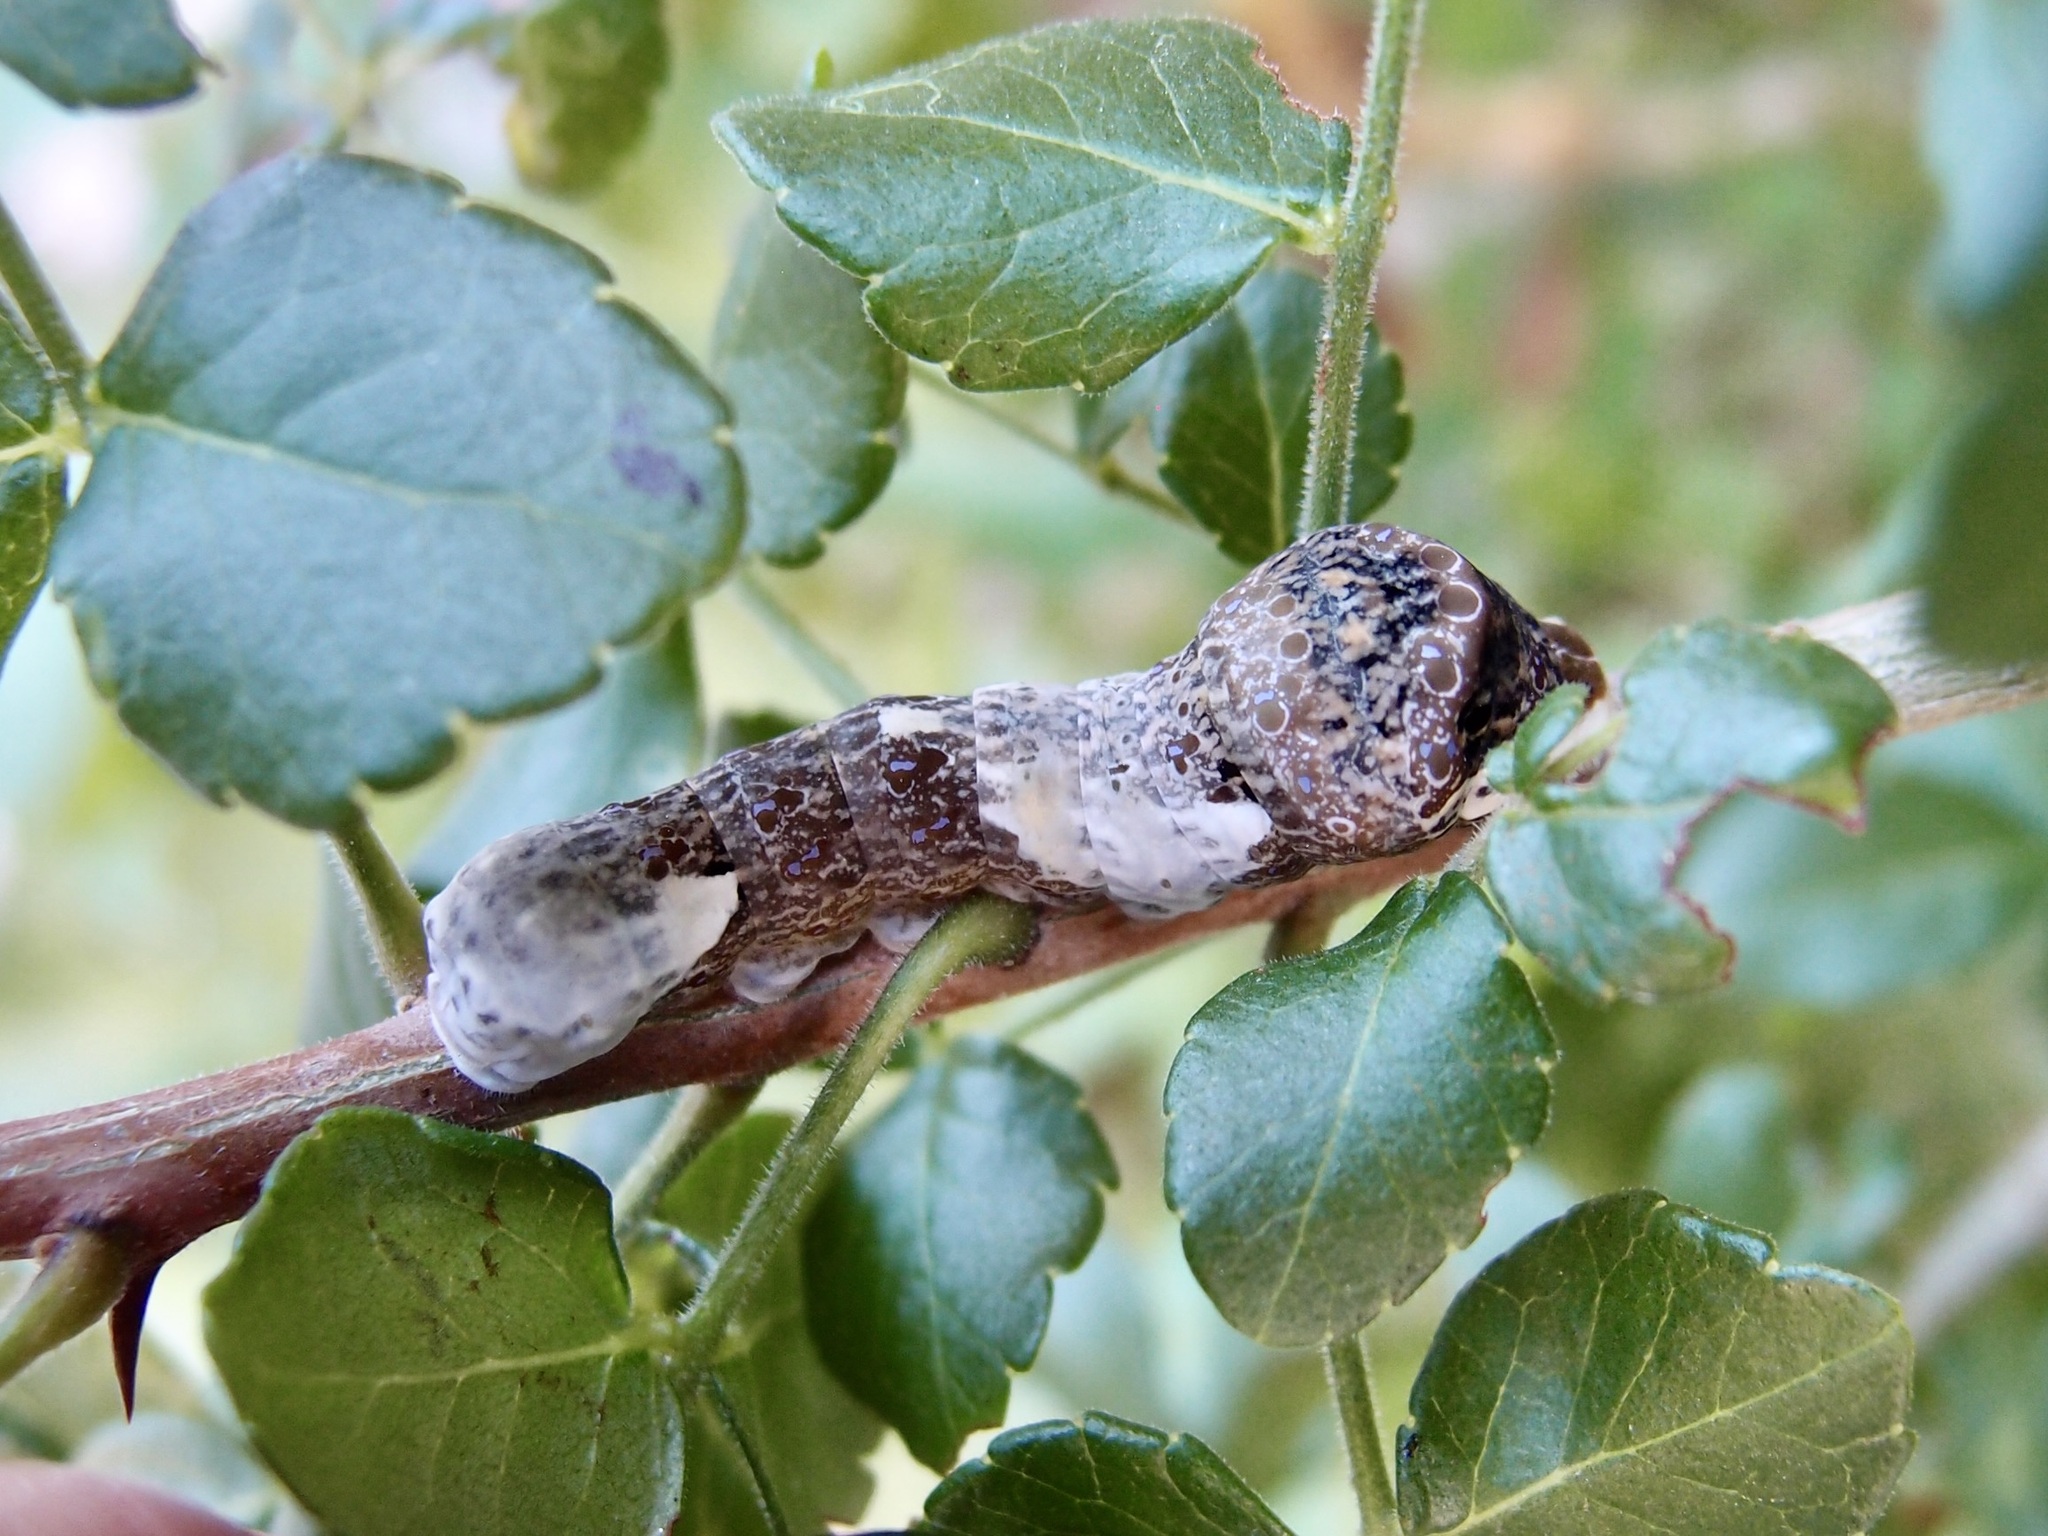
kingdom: Animalia
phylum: Arthropoda
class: Insecta
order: Lepidoptera
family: Papilionidae
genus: Papilio
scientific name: Papilio rumiko
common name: Western giant swallowtail
